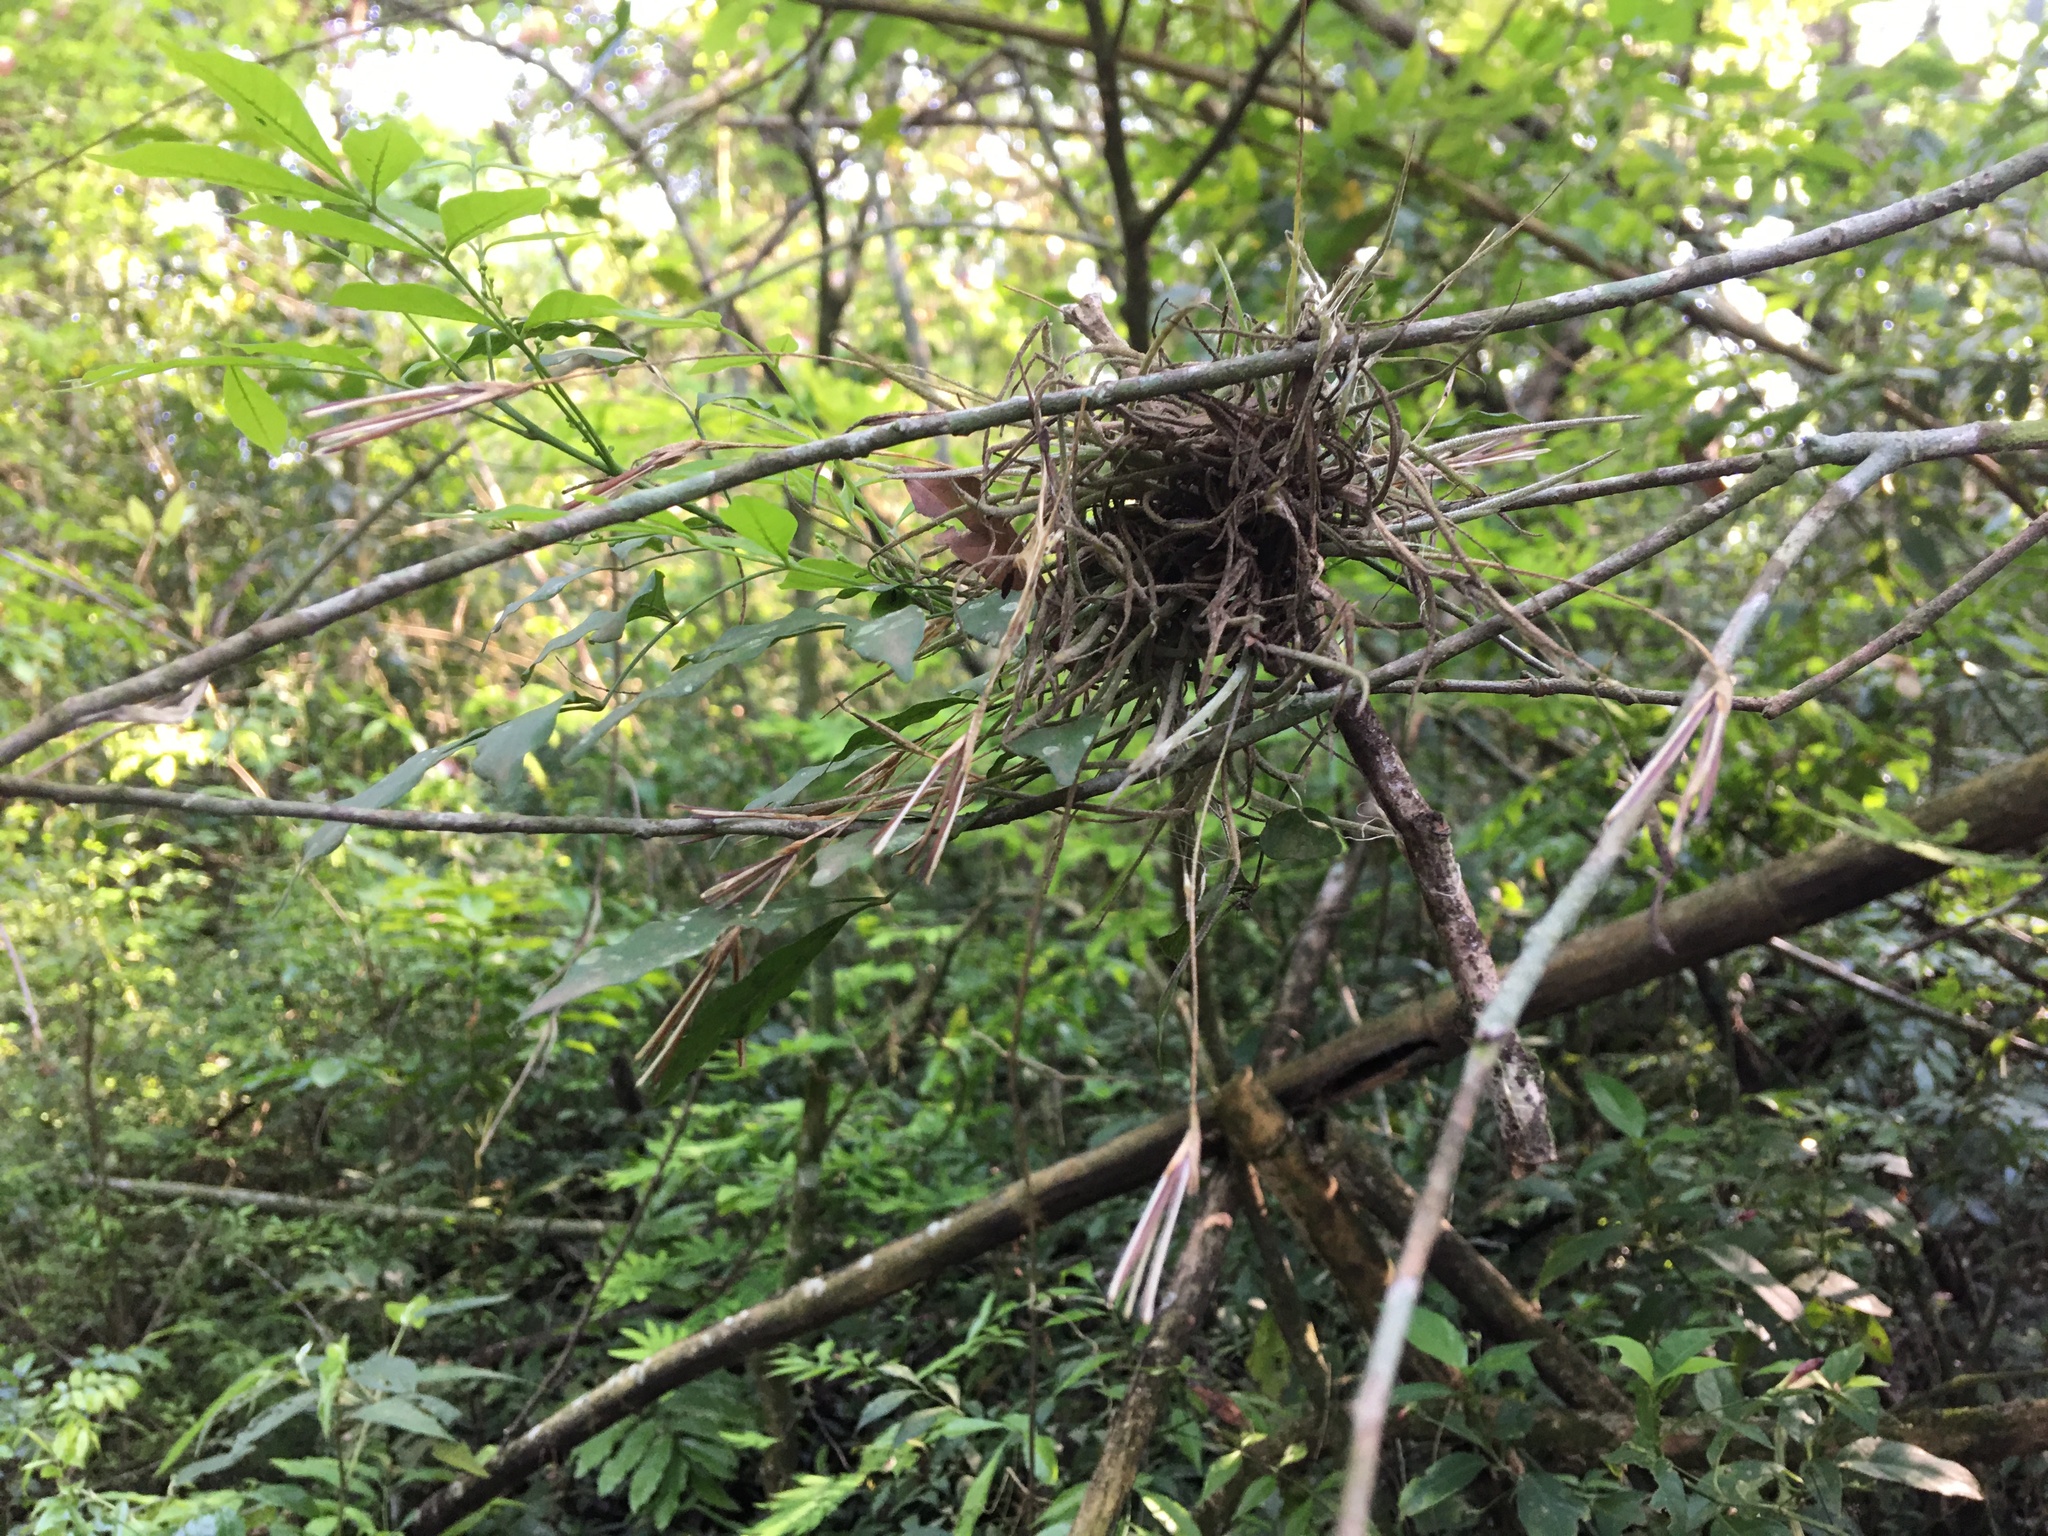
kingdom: Plantae
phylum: Tracheophyta
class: Liliopsida
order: Poales
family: Bromeliaceae
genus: Tillandsia
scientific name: Tillandsia recurvata
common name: Small ballmoss
